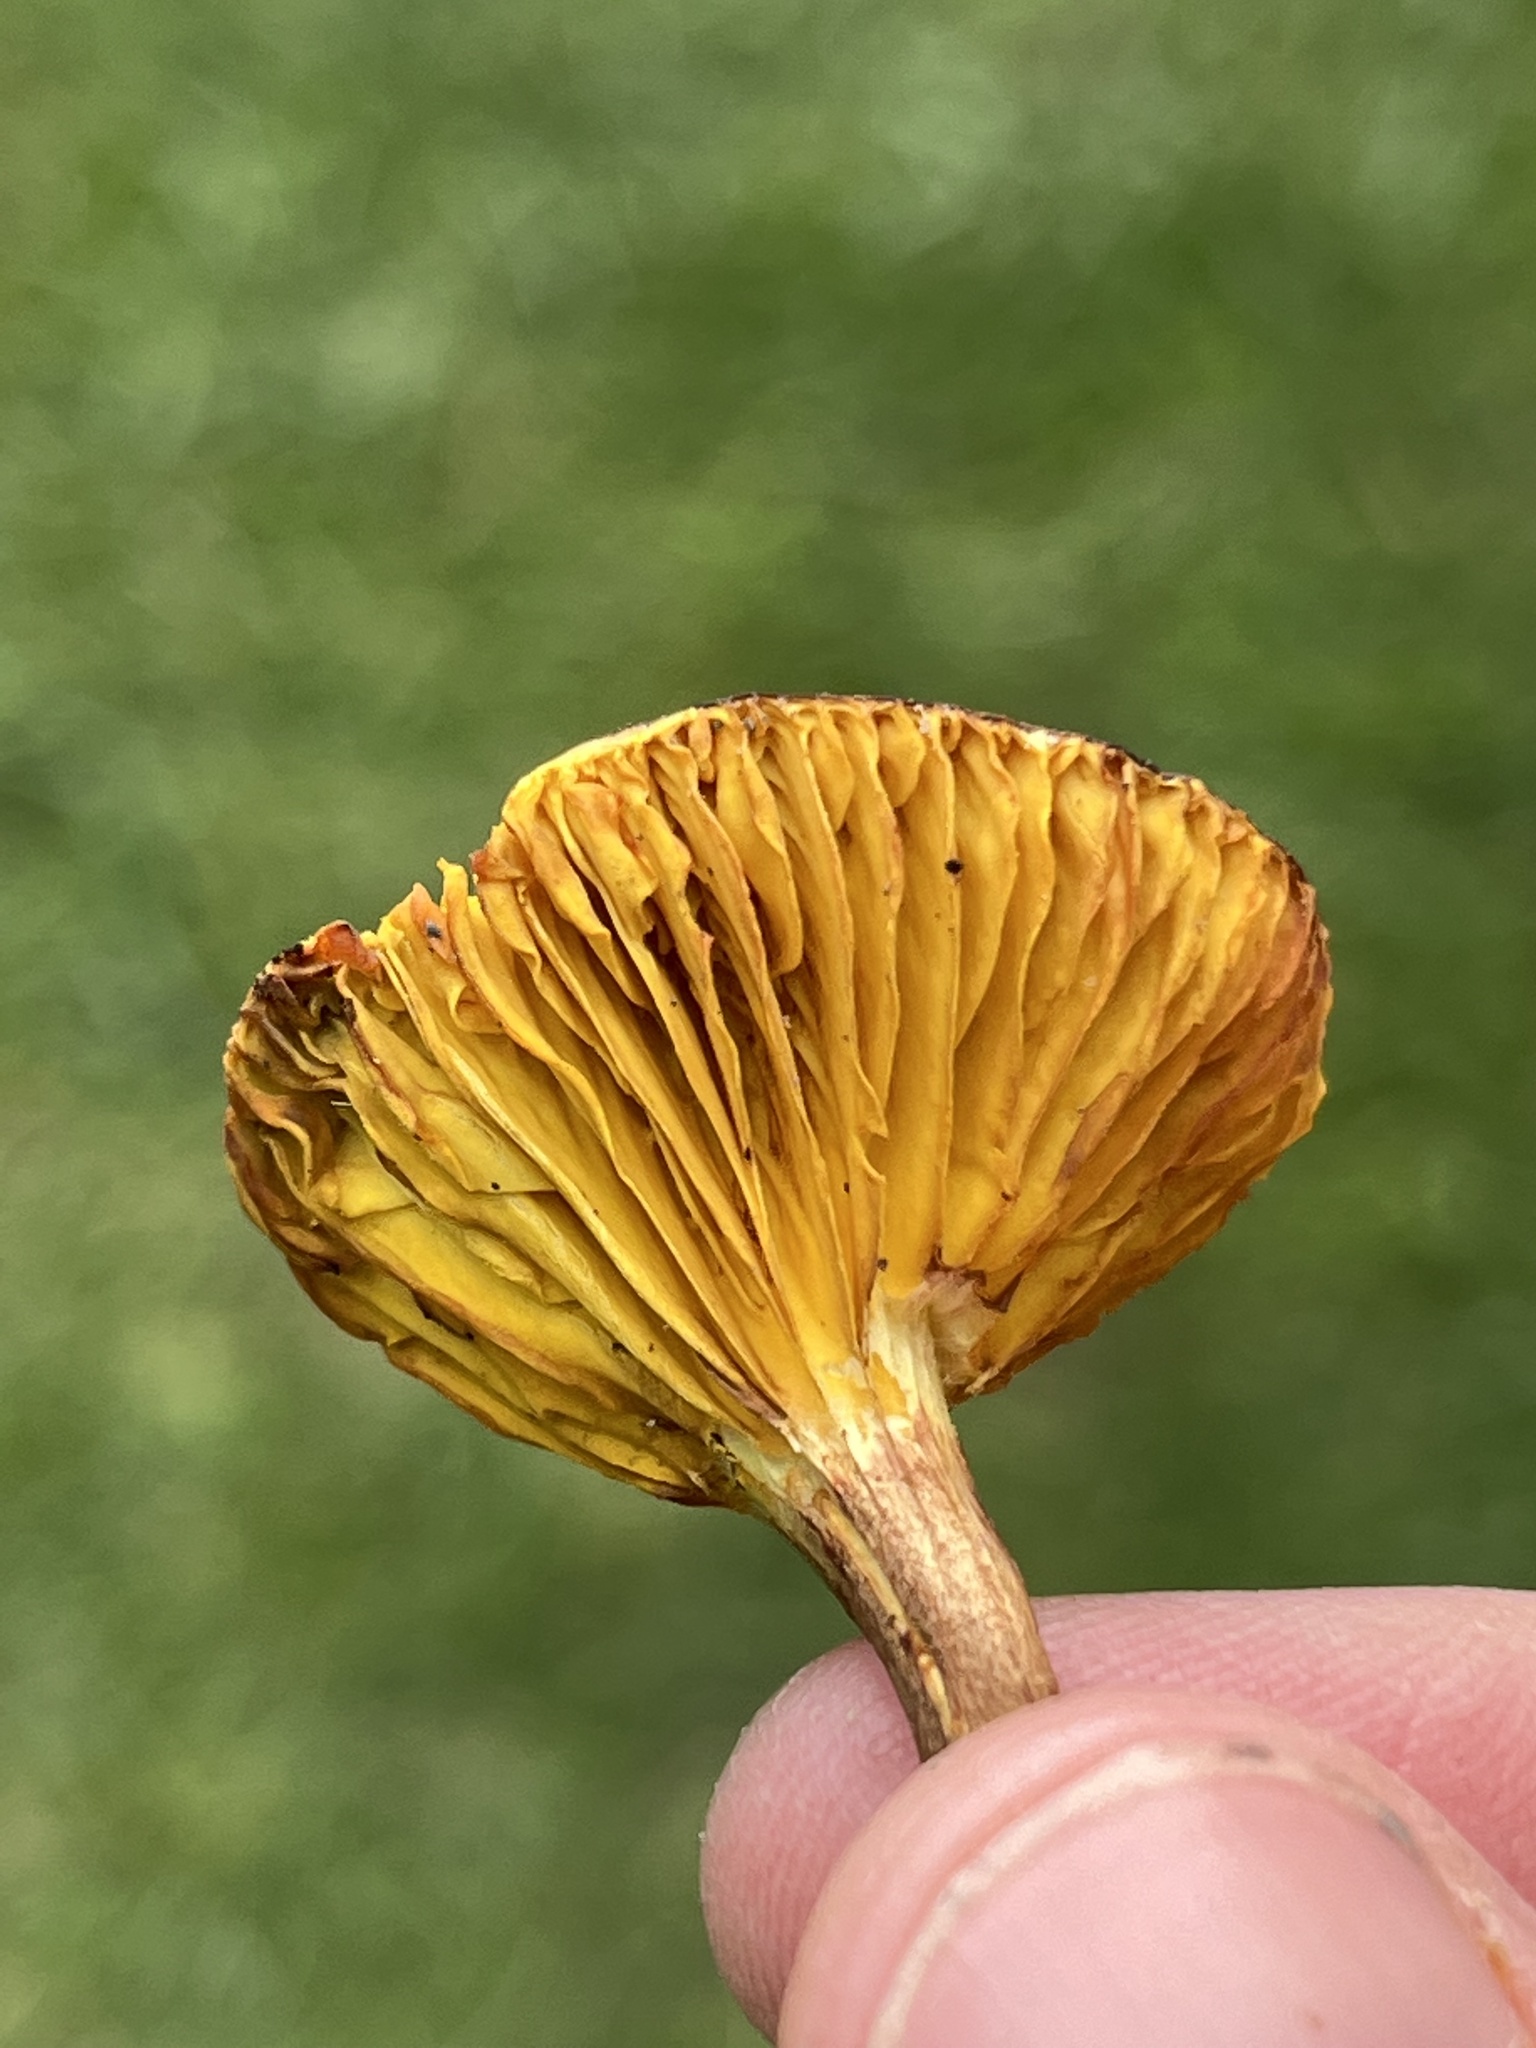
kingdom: Fungi
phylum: Basidiomycota
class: Agaricomycetes
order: Boletales
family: Boletaceae
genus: Phylloporus
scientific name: Phylloporus leucomycelinus
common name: Gilled bolete
